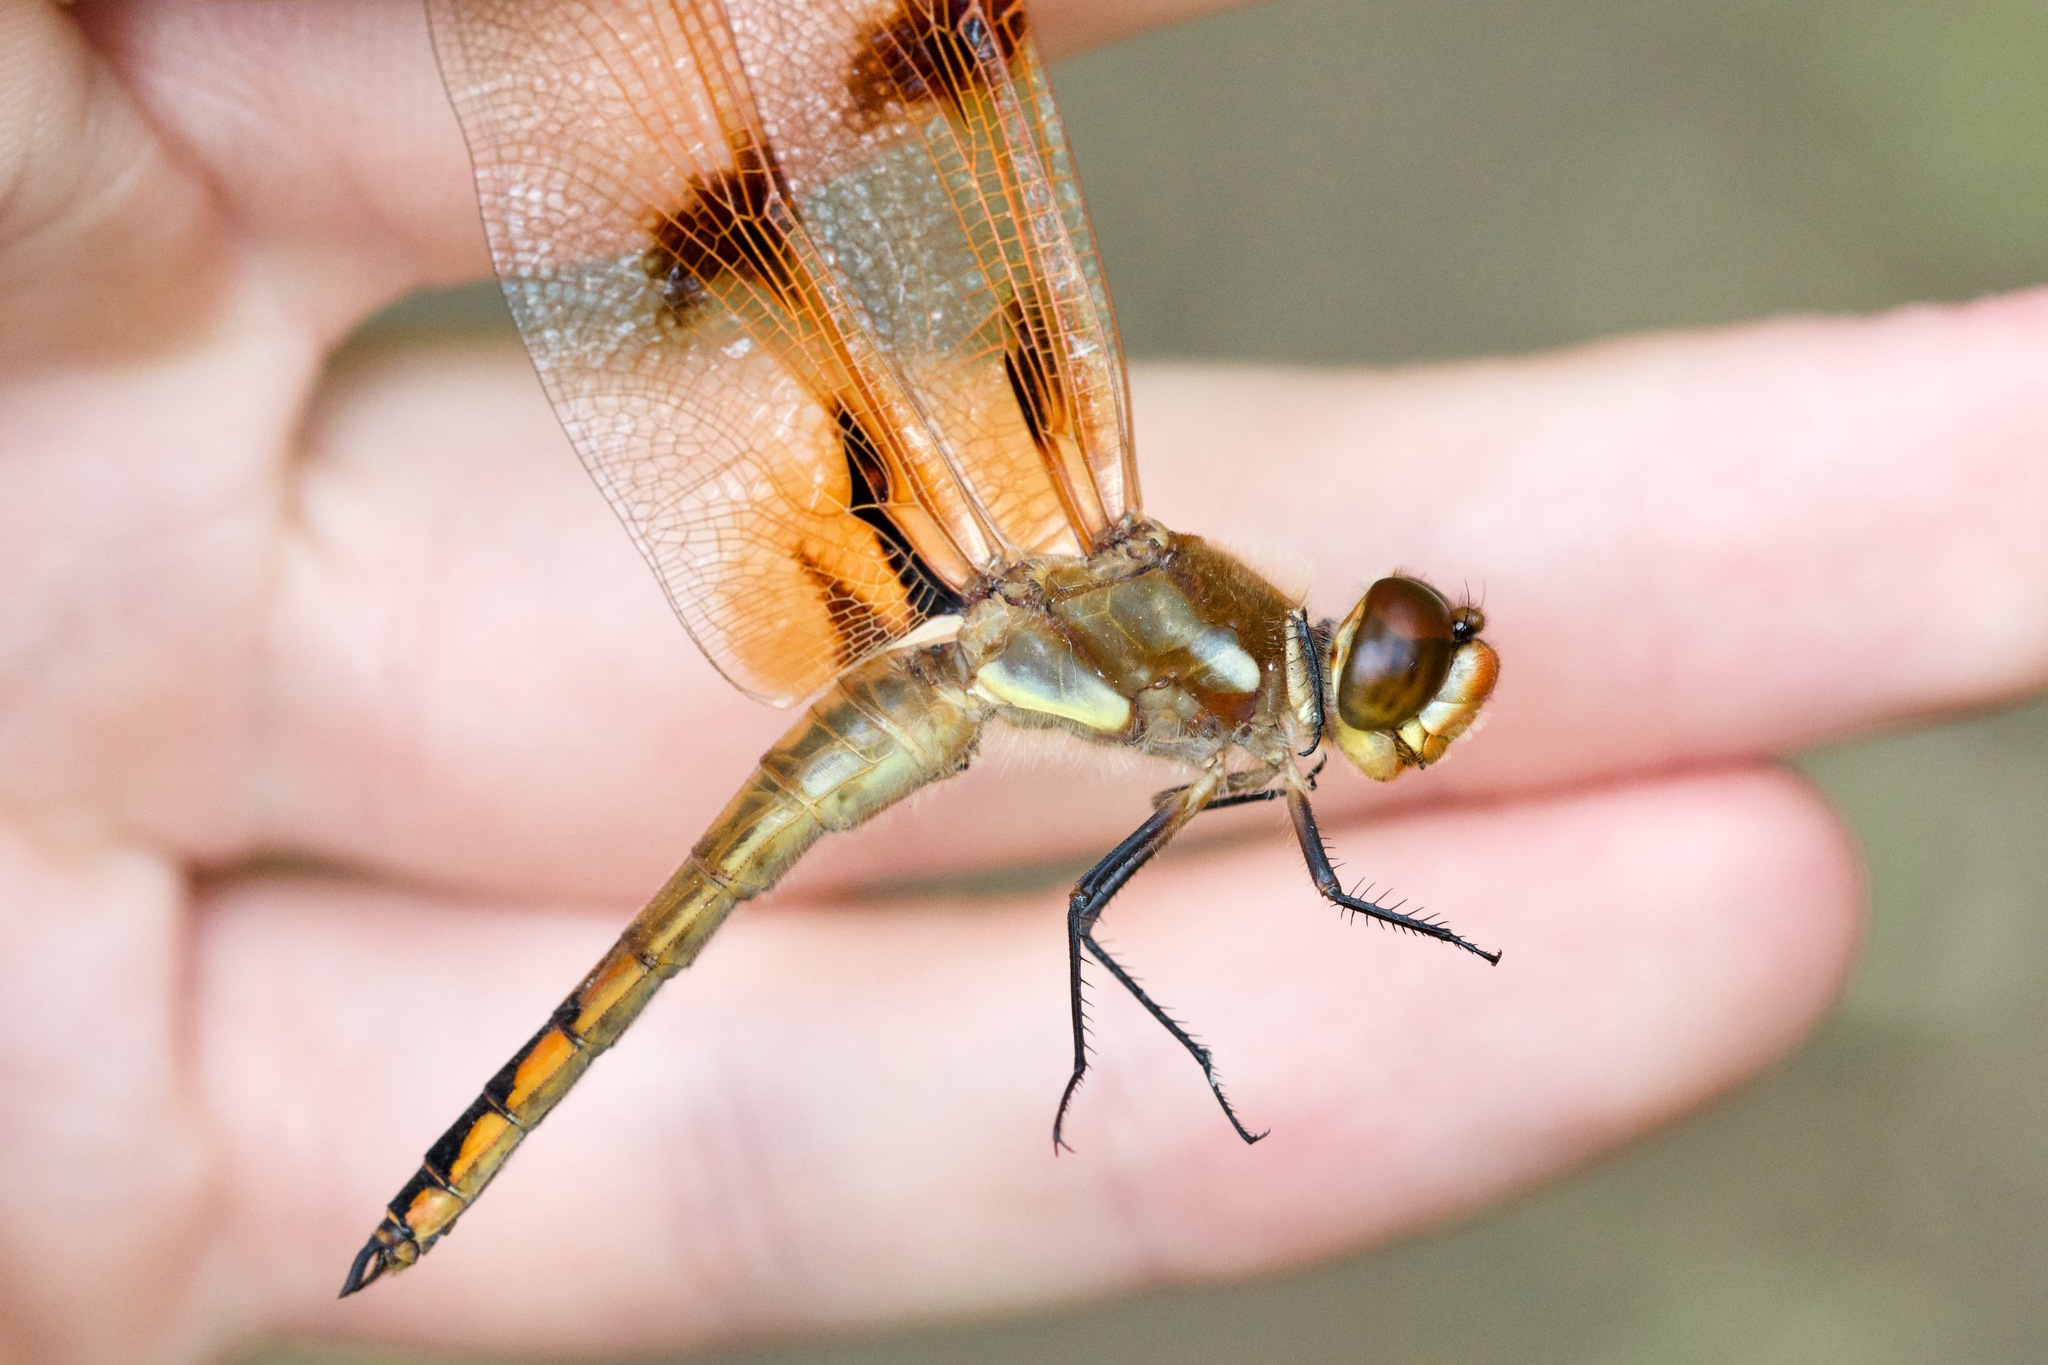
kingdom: Animalia
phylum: Arthropoda
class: Insecta
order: Odonata
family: Libellulidae
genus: Libellula
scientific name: Libellula semifasciata
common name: Painted skimmer
